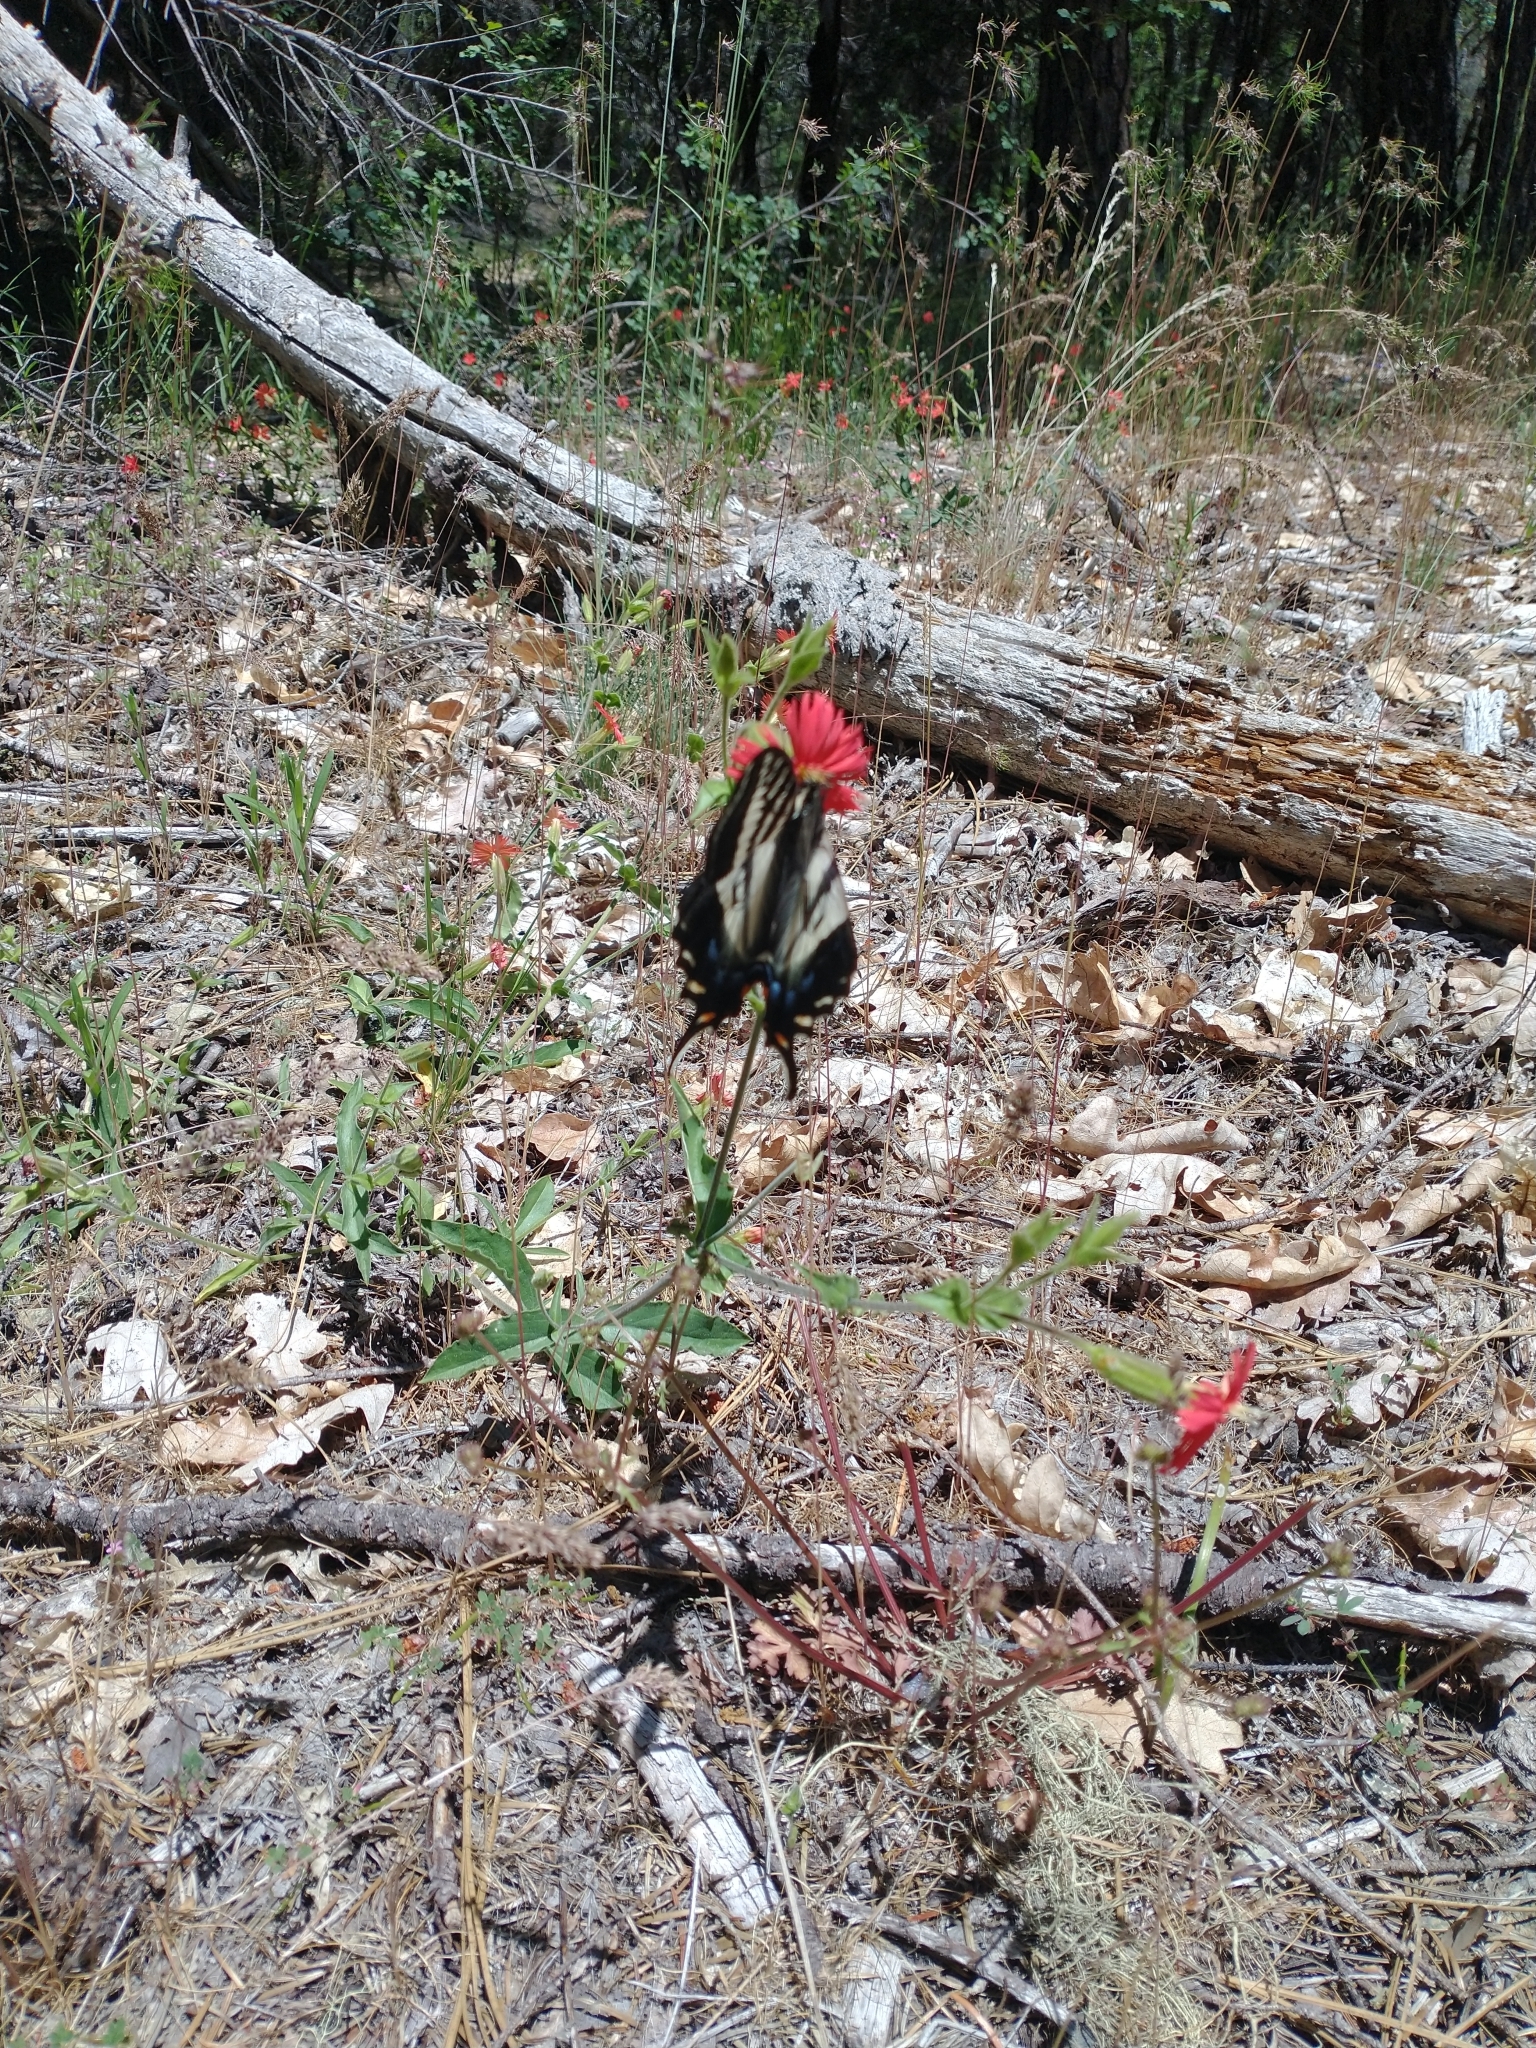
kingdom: Plantae
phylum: Tracheophyta
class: Magnoliopsida
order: Caryophyllales
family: Caryophyllaceae
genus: Silene
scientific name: Silene laciniata
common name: Indian-pink
